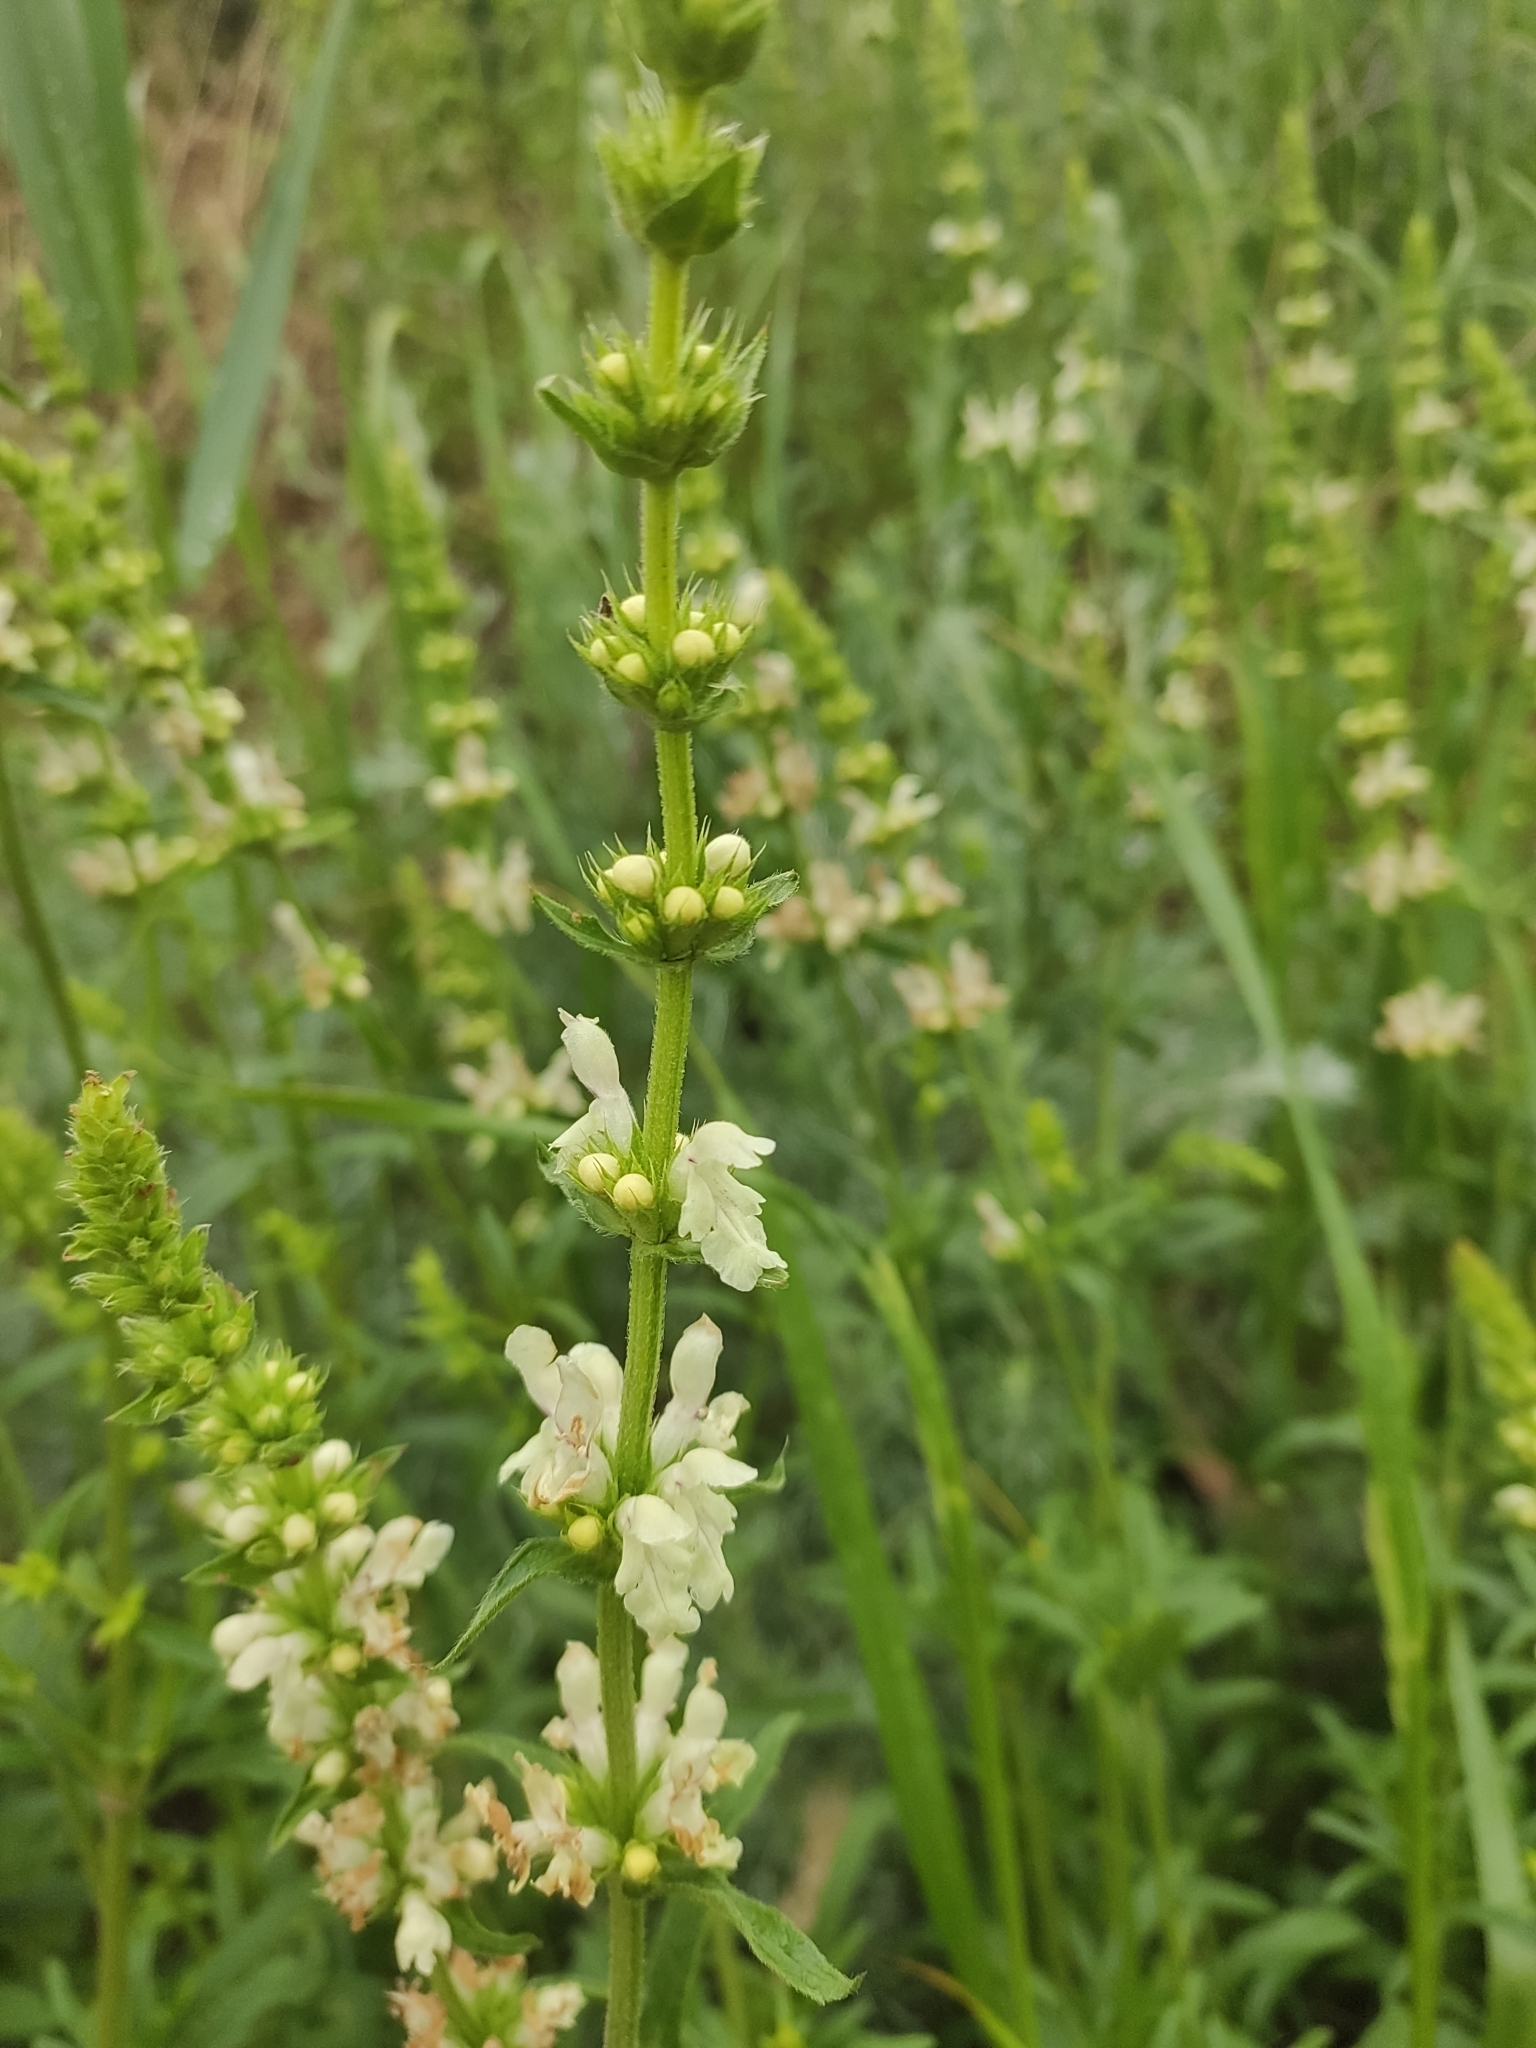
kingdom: Plantae
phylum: Tracheophyta
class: Magnoliopsida
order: Lamiales
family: Lamiaceae
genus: Stachys
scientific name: Stachys recta
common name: Perennial yellow-woundwort
